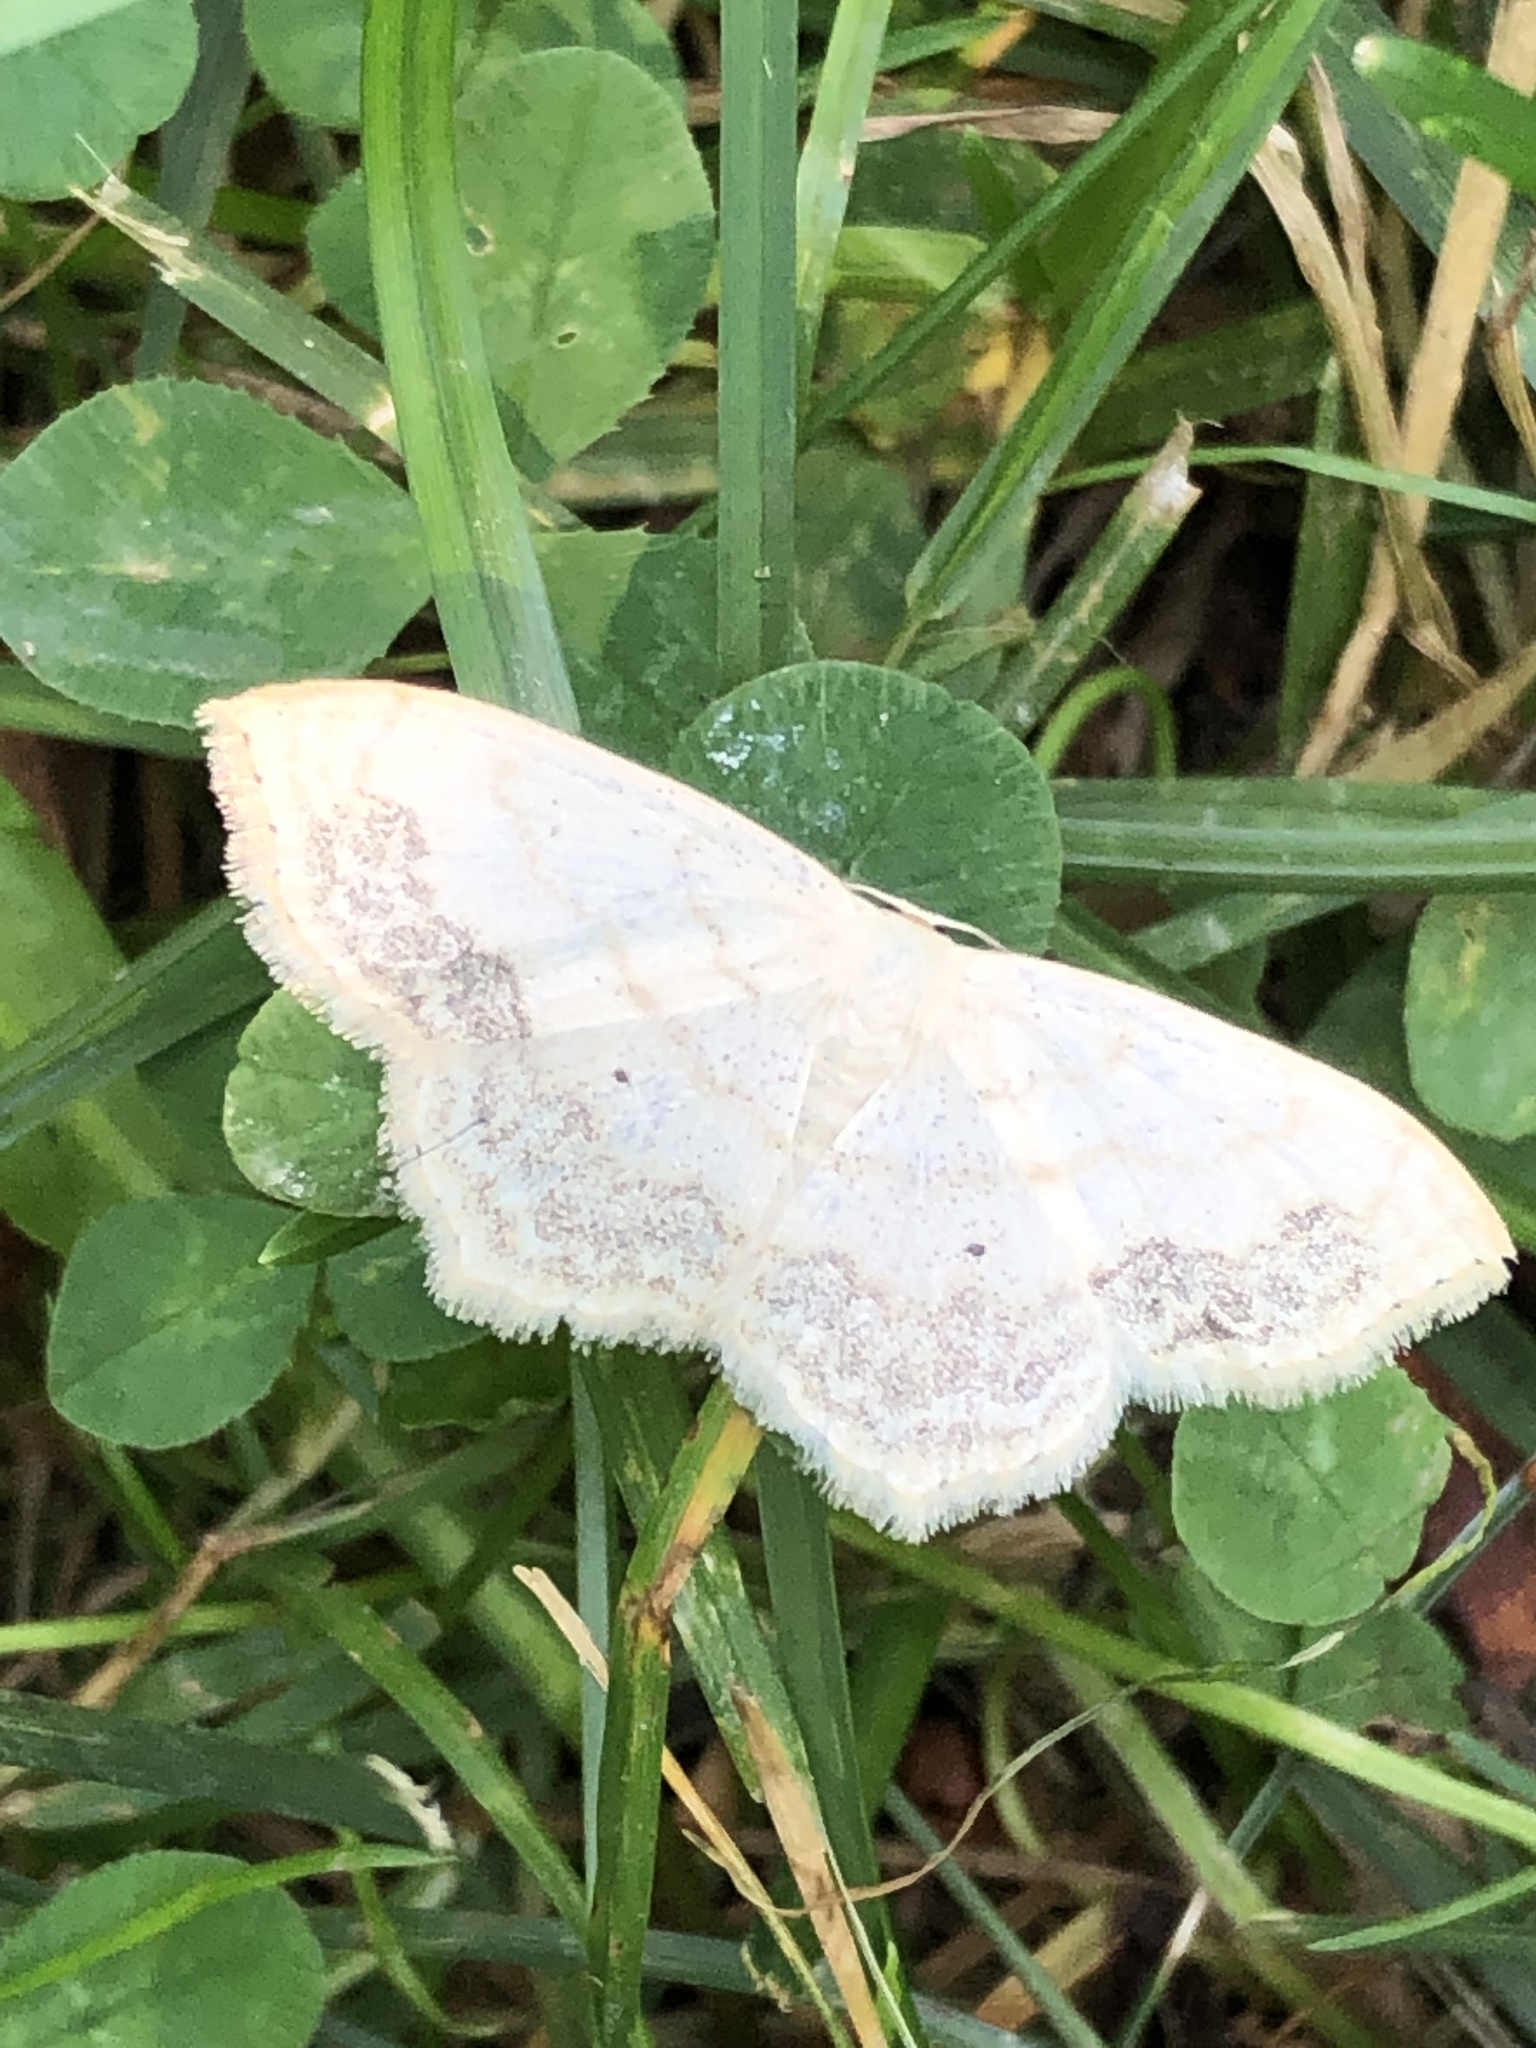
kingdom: Animalia
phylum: Arthropoda
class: Insecta
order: Lepidoptera
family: Geometridae
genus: Scopula
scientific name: Scopula limboundata
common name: Large lace border
